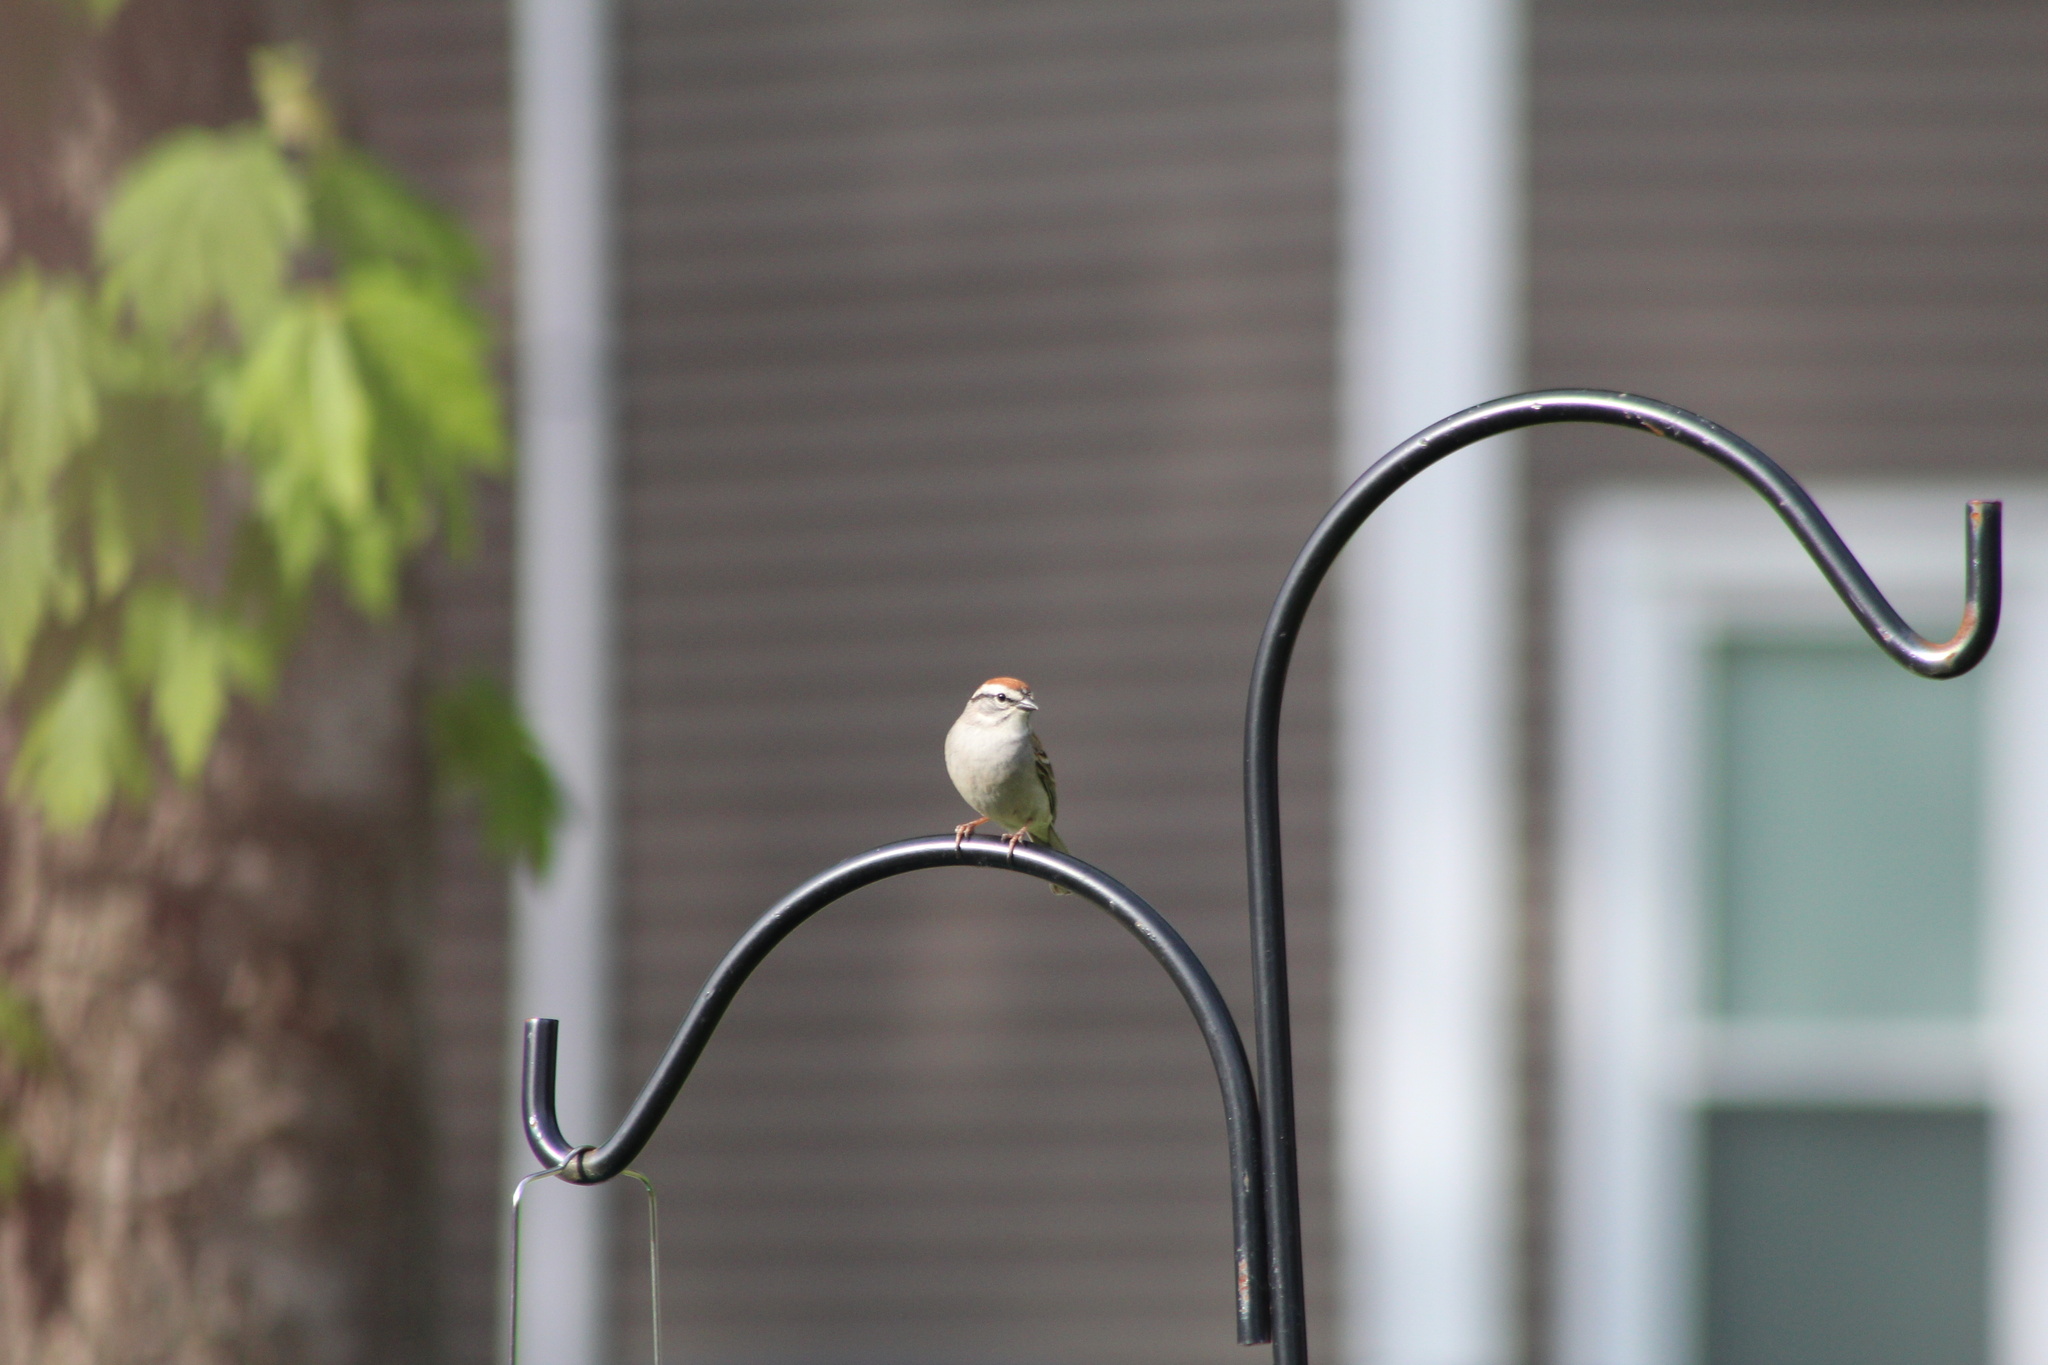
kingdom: Animalia
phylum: Chordata
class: Aves
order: Passeriformes
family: Passerellidae
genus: Spizella
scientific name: Spizella passerina
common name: Chipping sparrow
